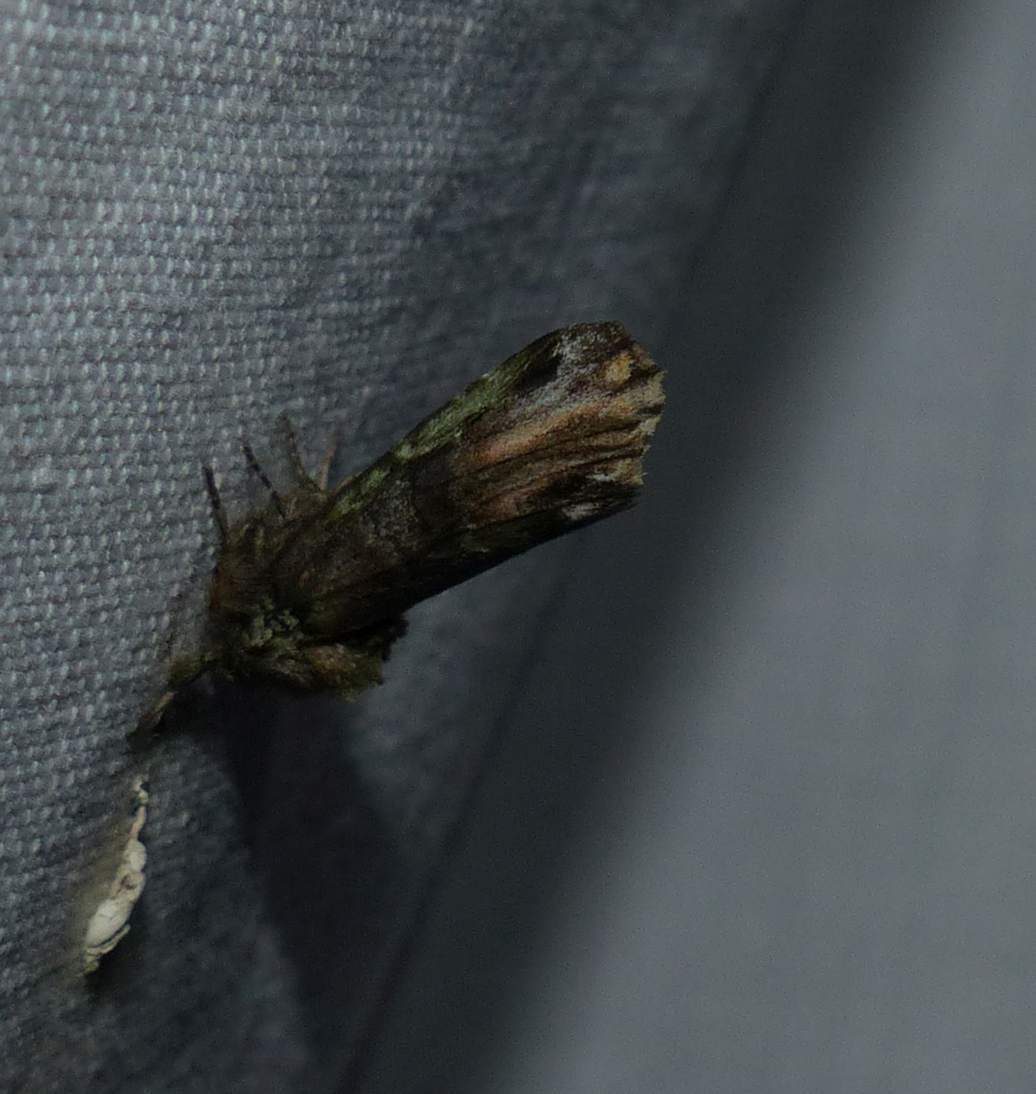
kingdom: Animalia
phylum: Arthropoda
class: Insecta
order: Lepidoptera
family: Notodontidae
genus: Schizura
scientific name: Schizura
